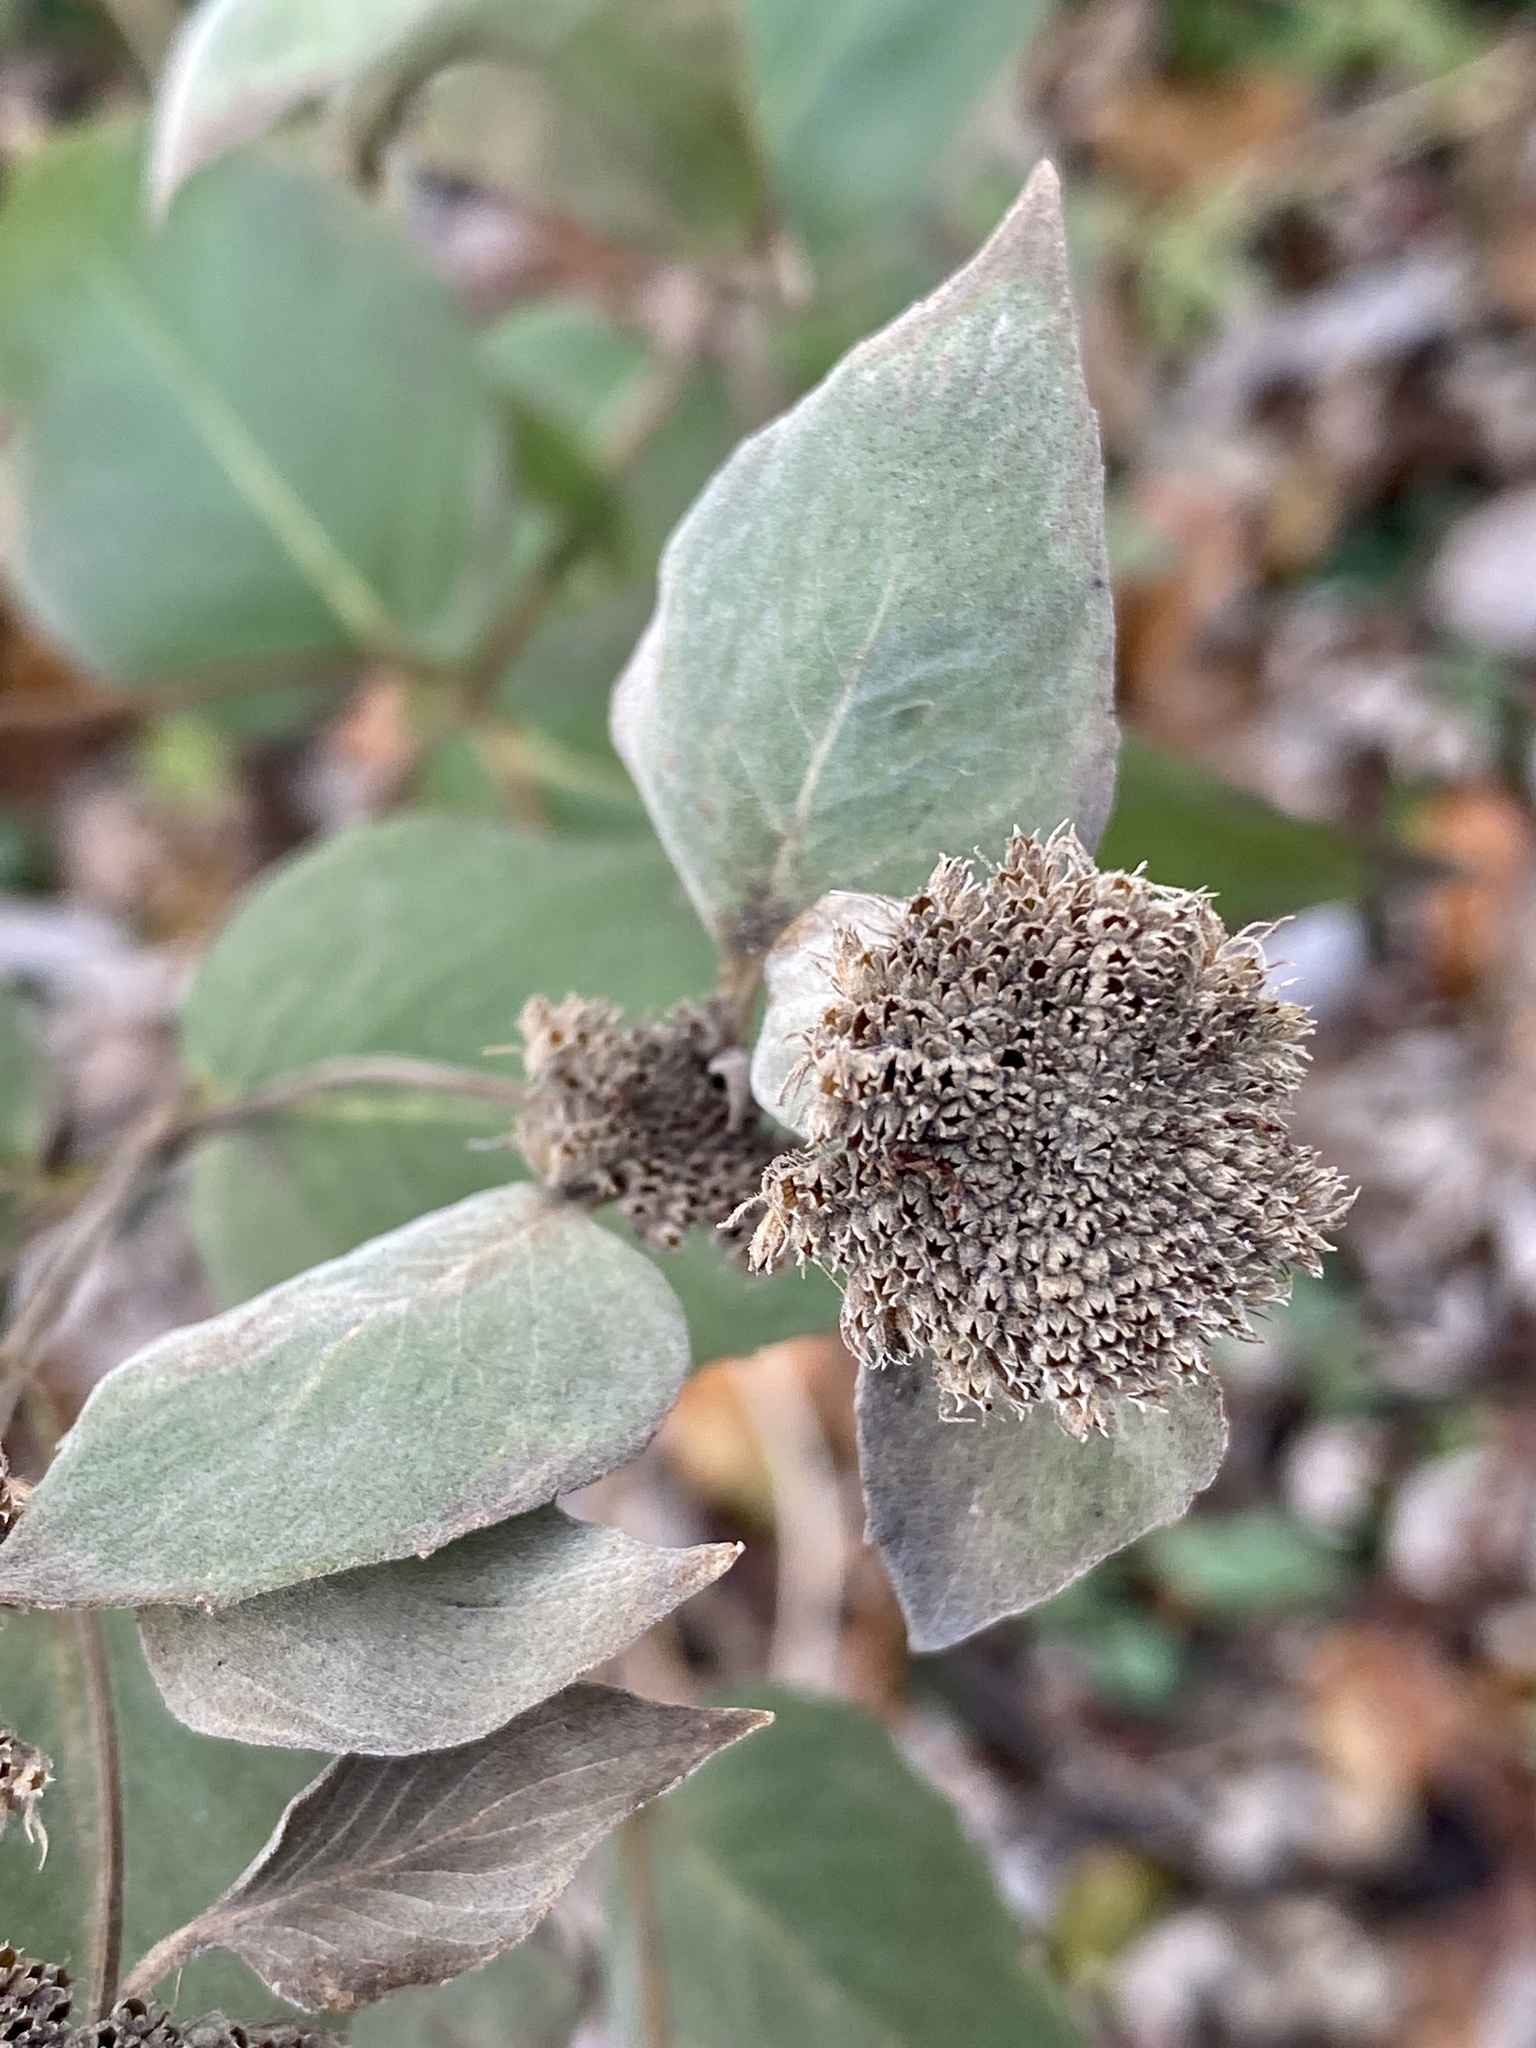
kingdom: Plantae
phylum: Tracheophyta
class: Magnoliopsida
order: Lamiales
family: Lamiaceae
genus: Pycnanthemum
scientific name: Pycnanthemum muticum
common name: Blunt mountain-mint
